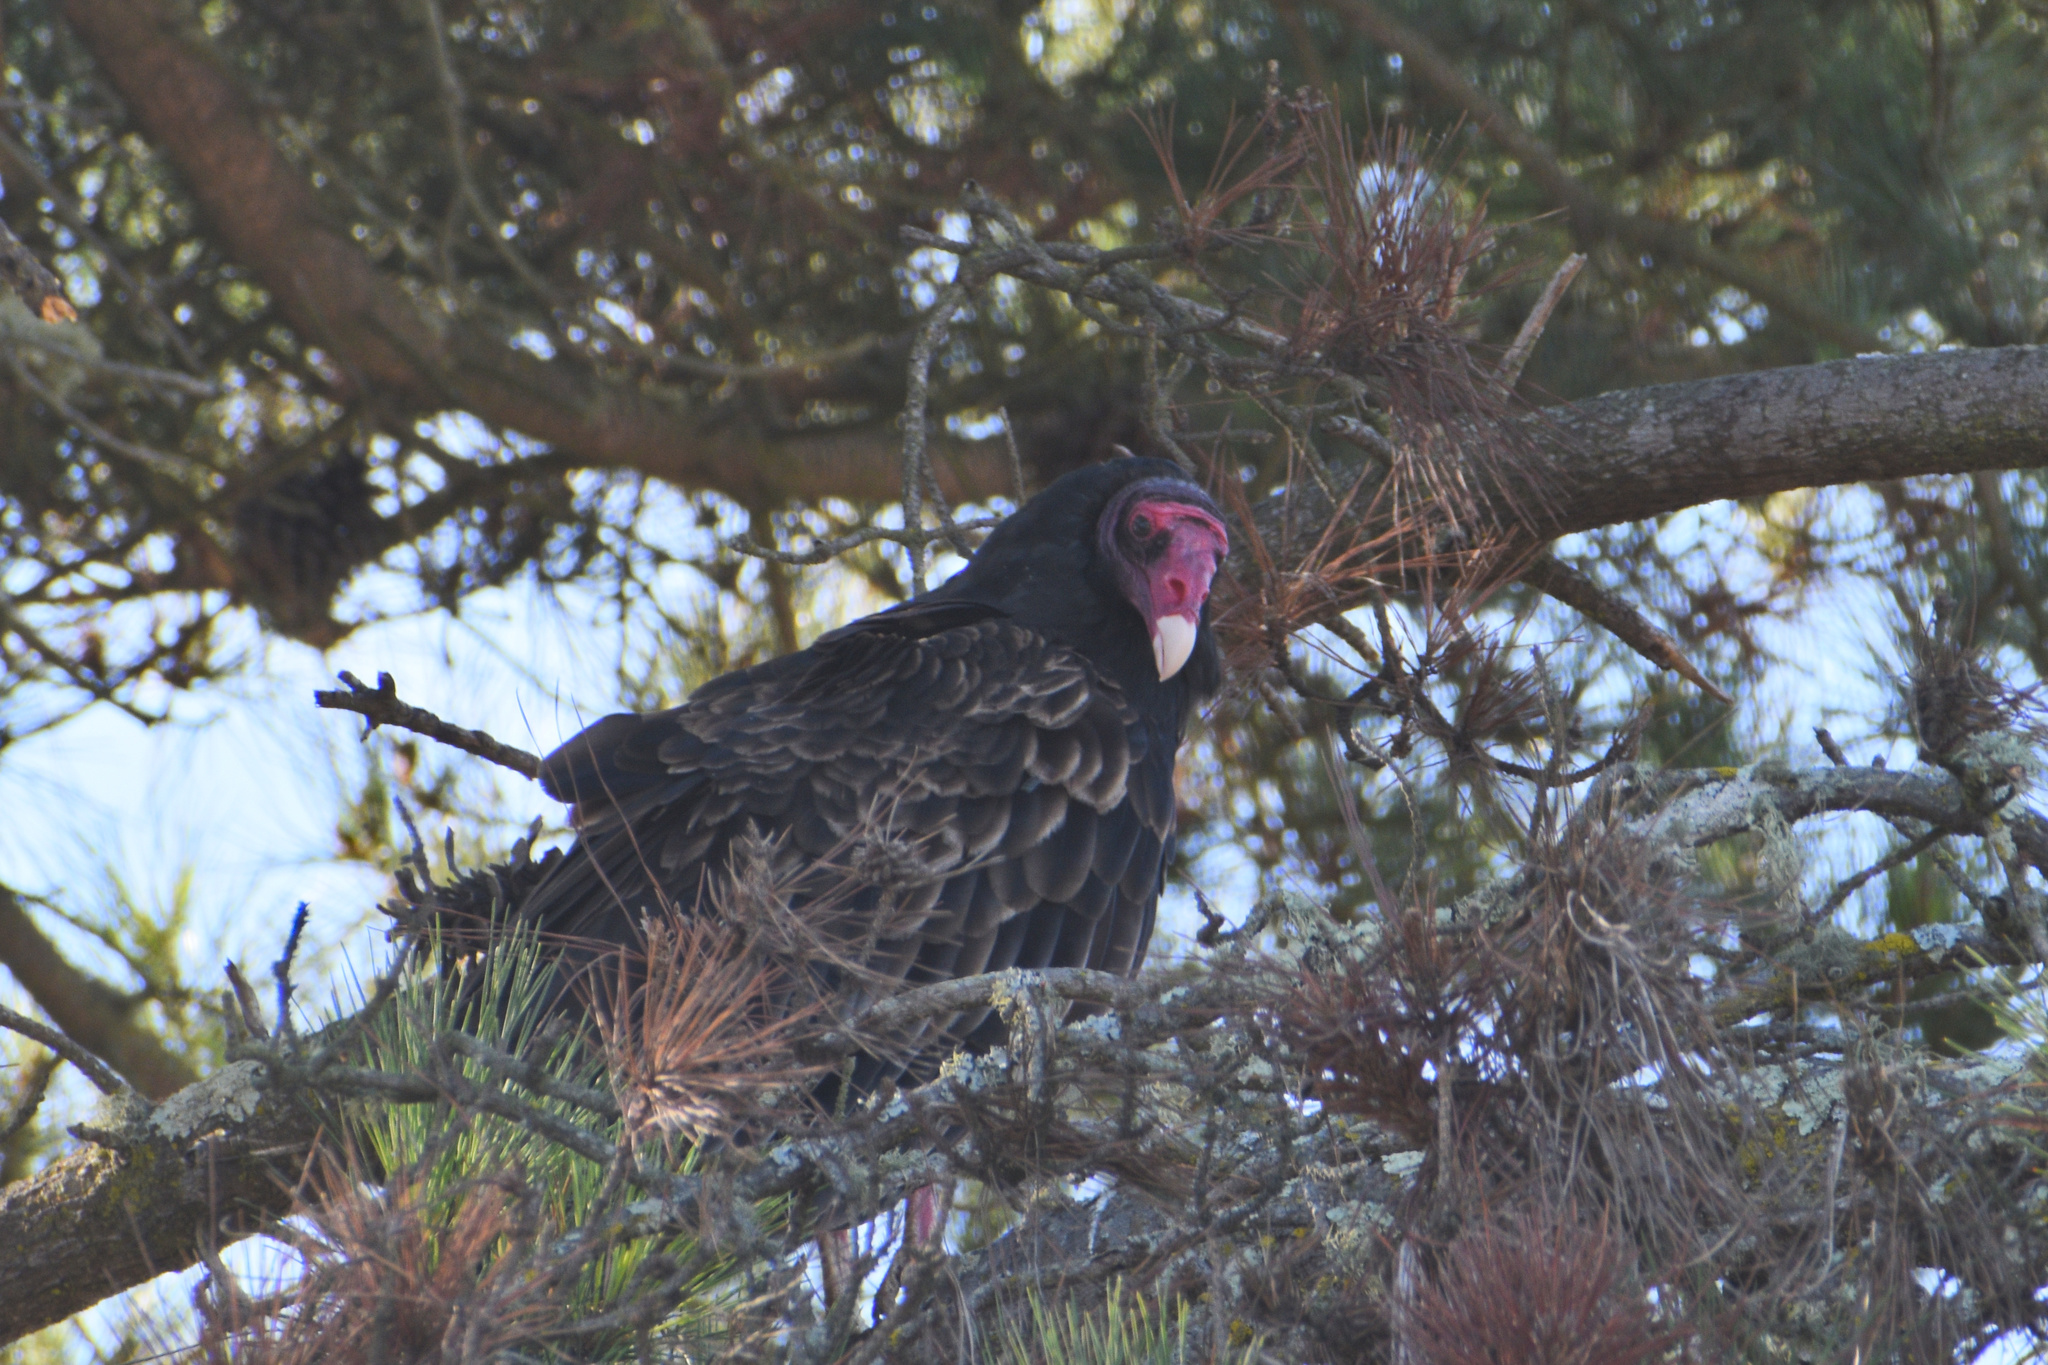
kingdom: Animalia
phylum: Chordata
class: Aves
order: Accipitriformes
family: Cathartidae
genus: Cathartes
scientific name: Cathartes aura
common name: Turkey vulture
